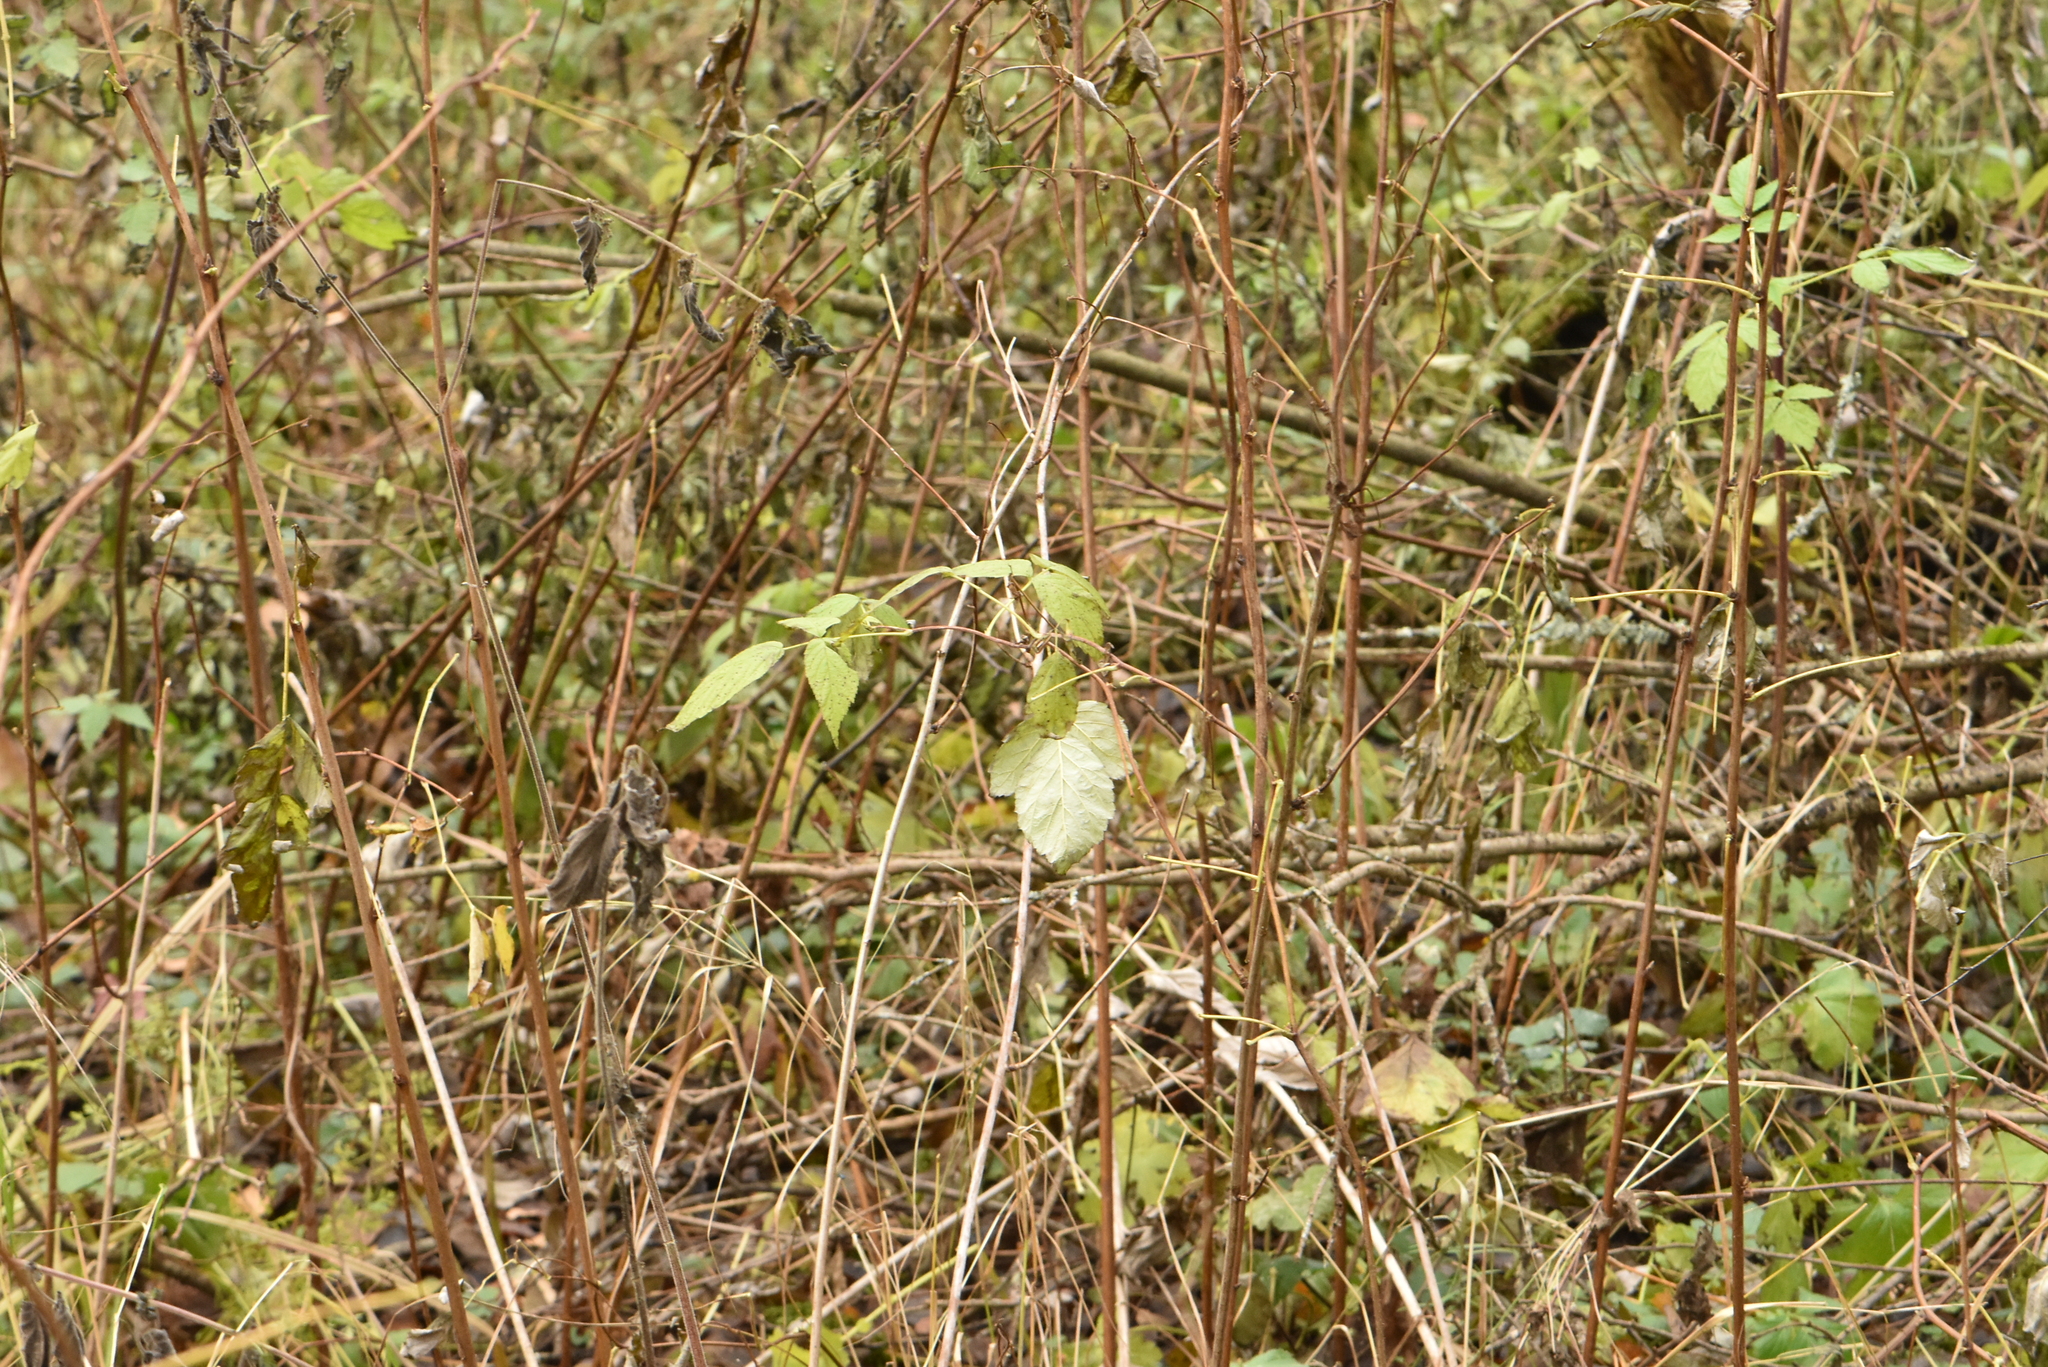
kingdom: Plantae
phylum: Tracheophyta
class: Magnoliopsida
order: Rosales
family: Rosaceae
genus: Rubus
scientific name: Rubus idaeus
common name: Raspberry
